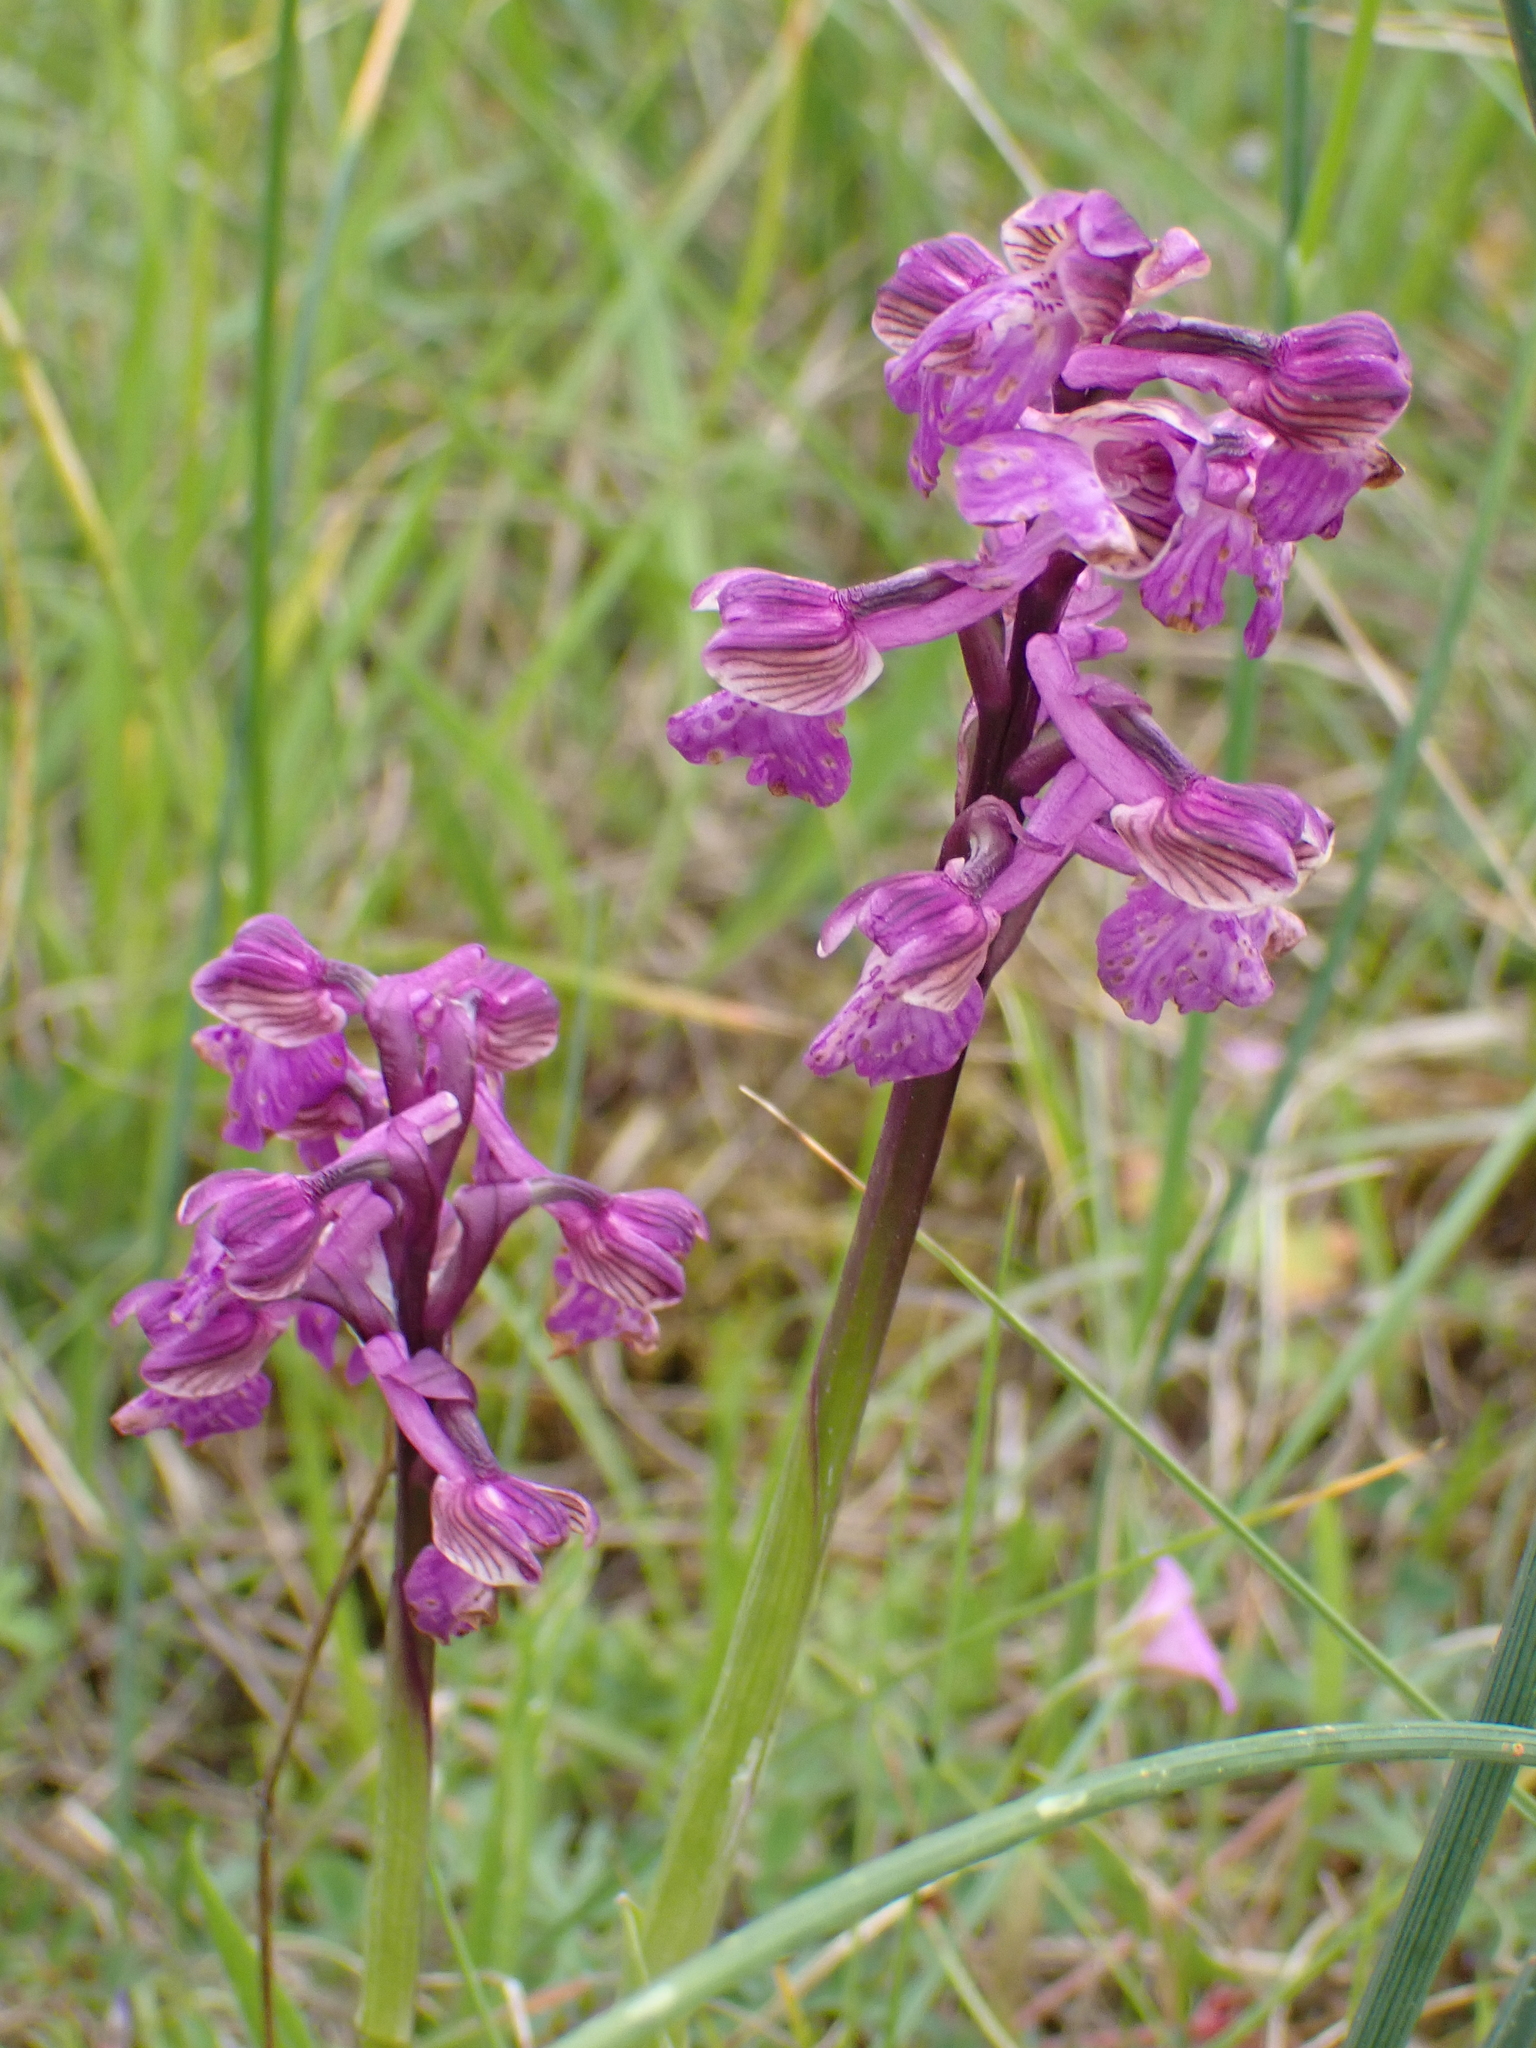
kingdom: Plantae
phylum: Tracheophyta
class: Liliopsida
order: Asparagales
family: Orchidaceae
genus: Anacamptis
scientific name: Anacamptis morio
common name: Green-winged orchid
